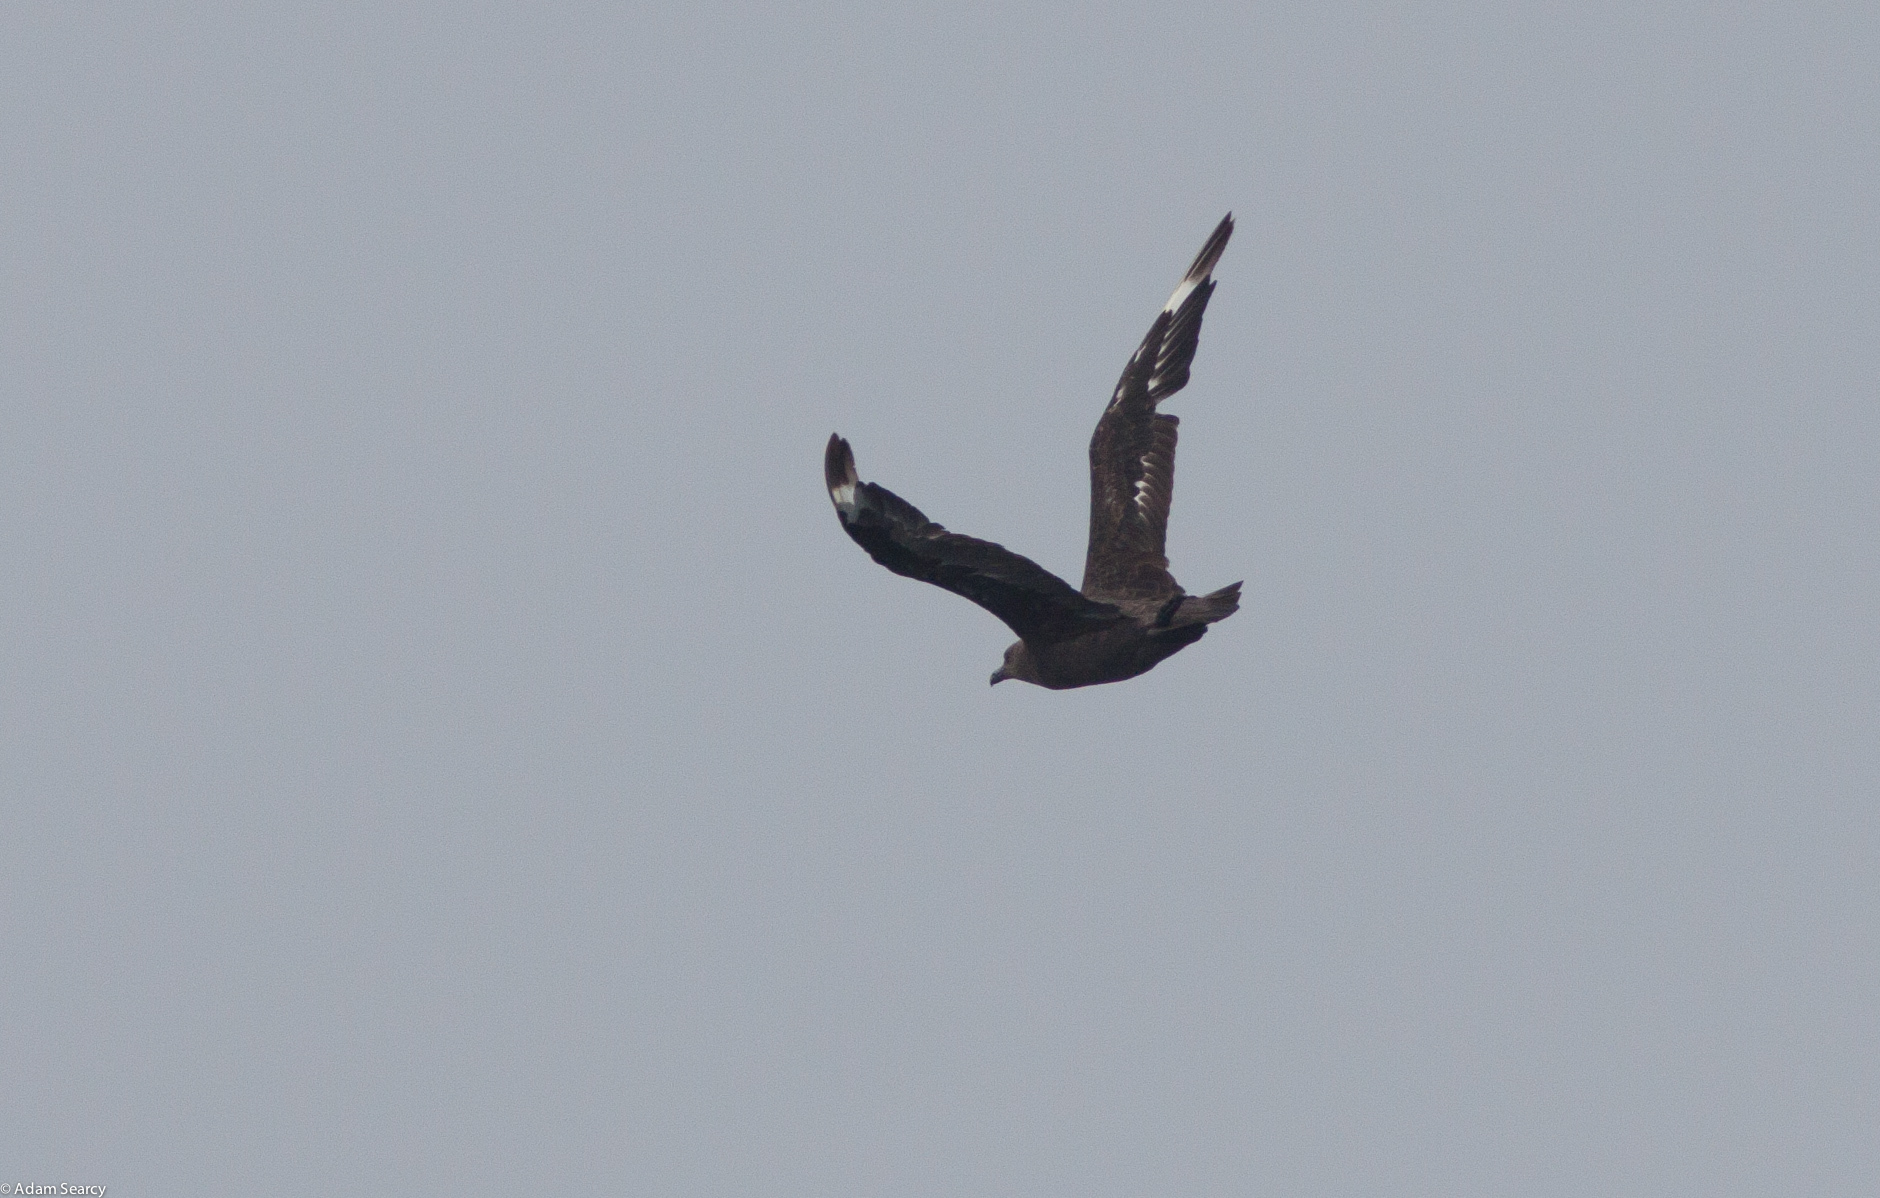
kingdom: Animalia
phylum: Chordata
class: Aves
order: Charadriiformes
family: Stercorariidae
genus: Stercorarius
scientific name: Stercorarius maccormicki
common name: South polar skua
